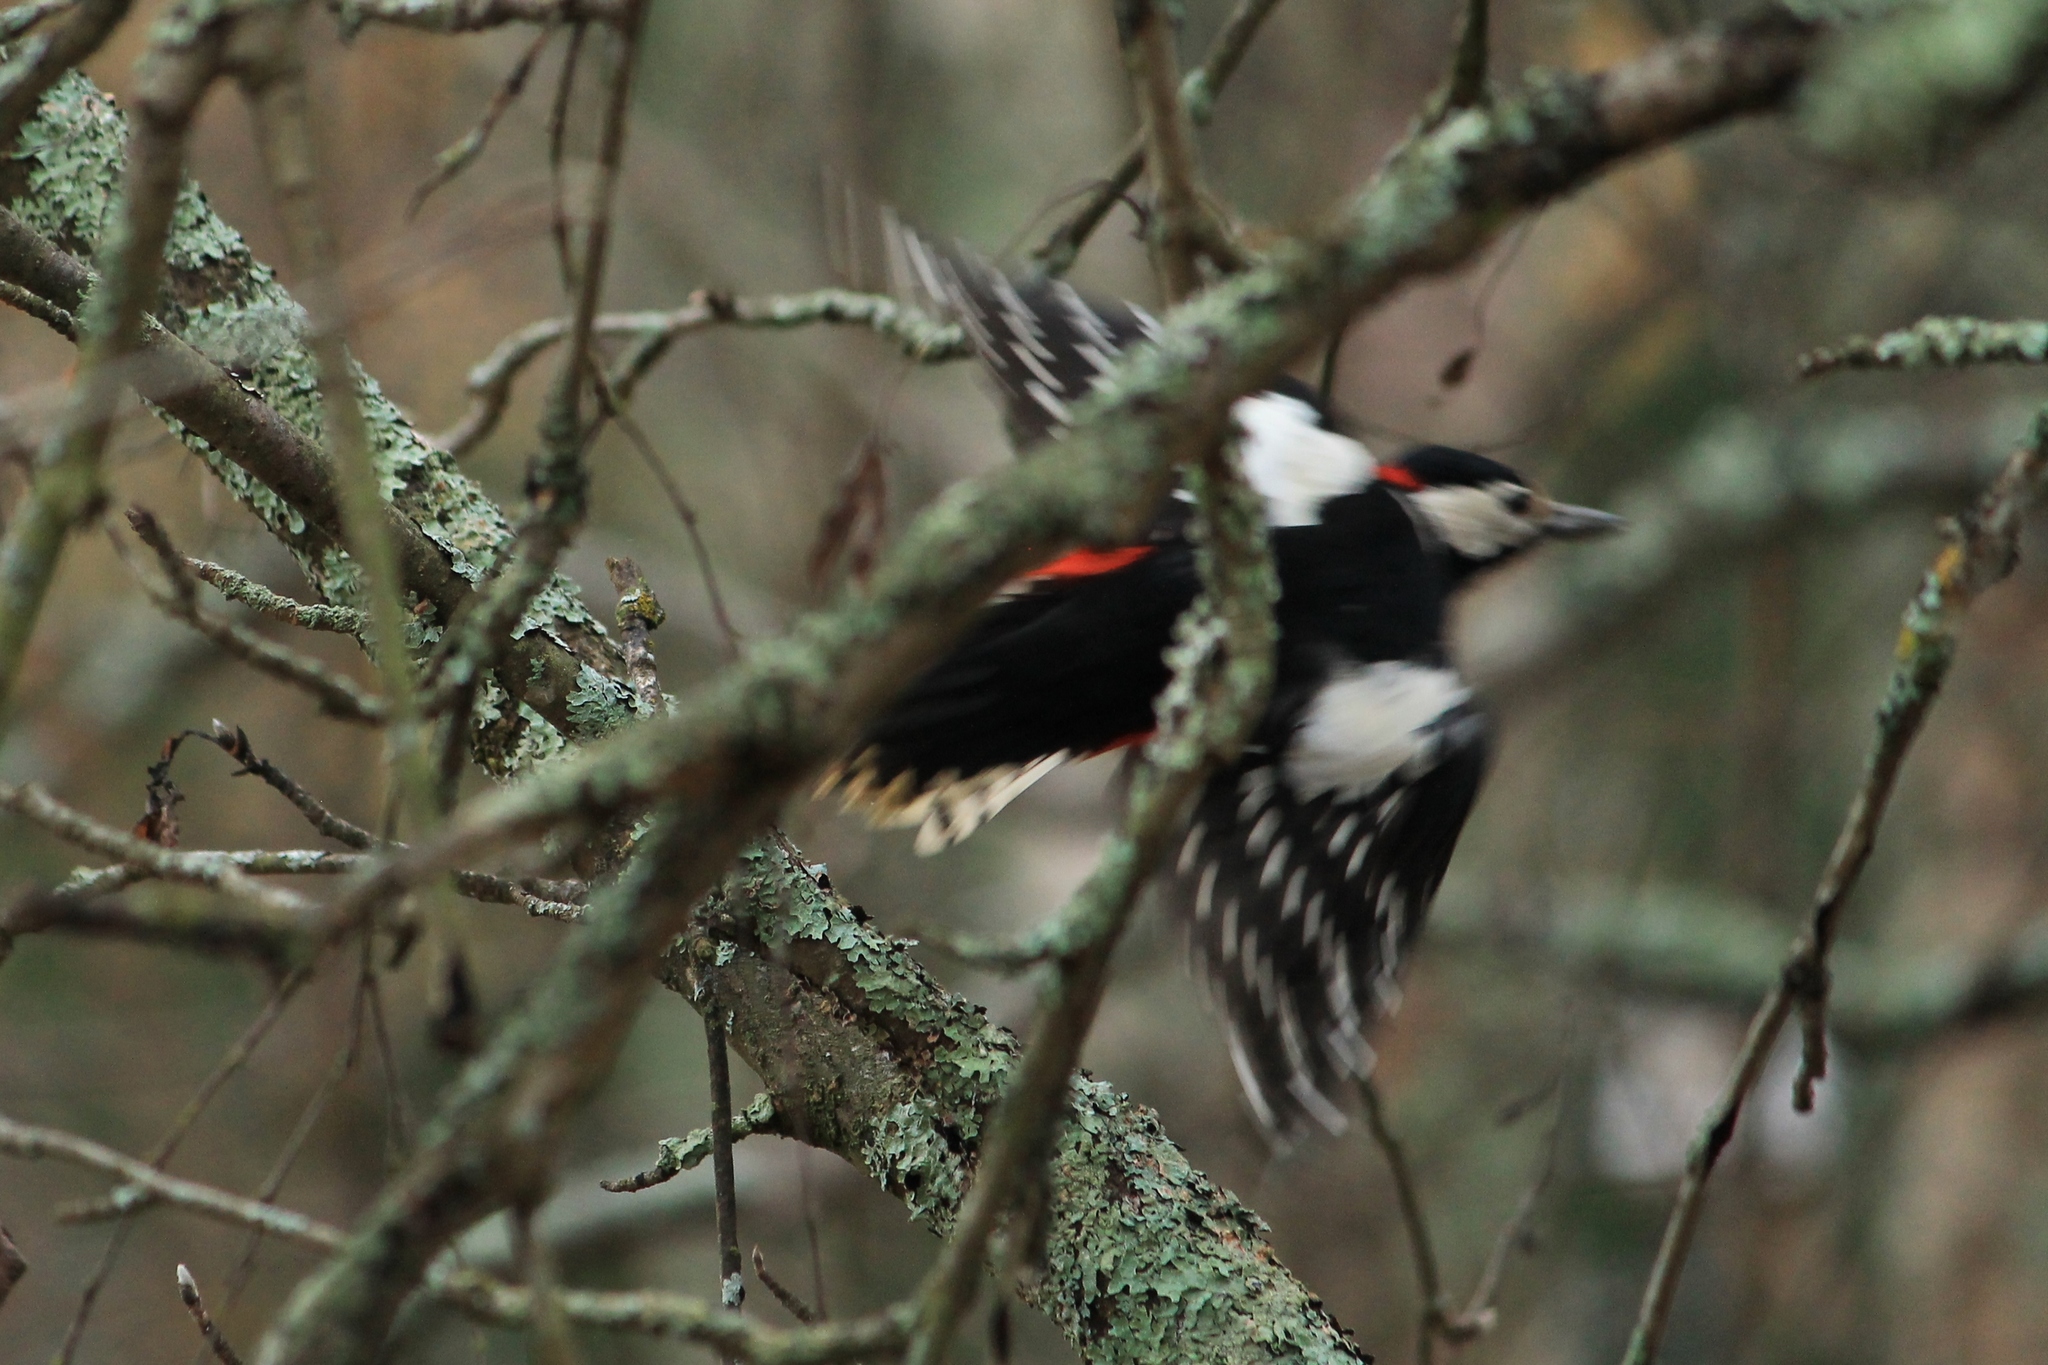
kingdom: Animalia
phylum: Chordata
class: Aves
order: Piciformes
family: Picidae
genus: Dendrocopos
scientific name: Dendrocopos major
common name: Great spotted woodpecker
